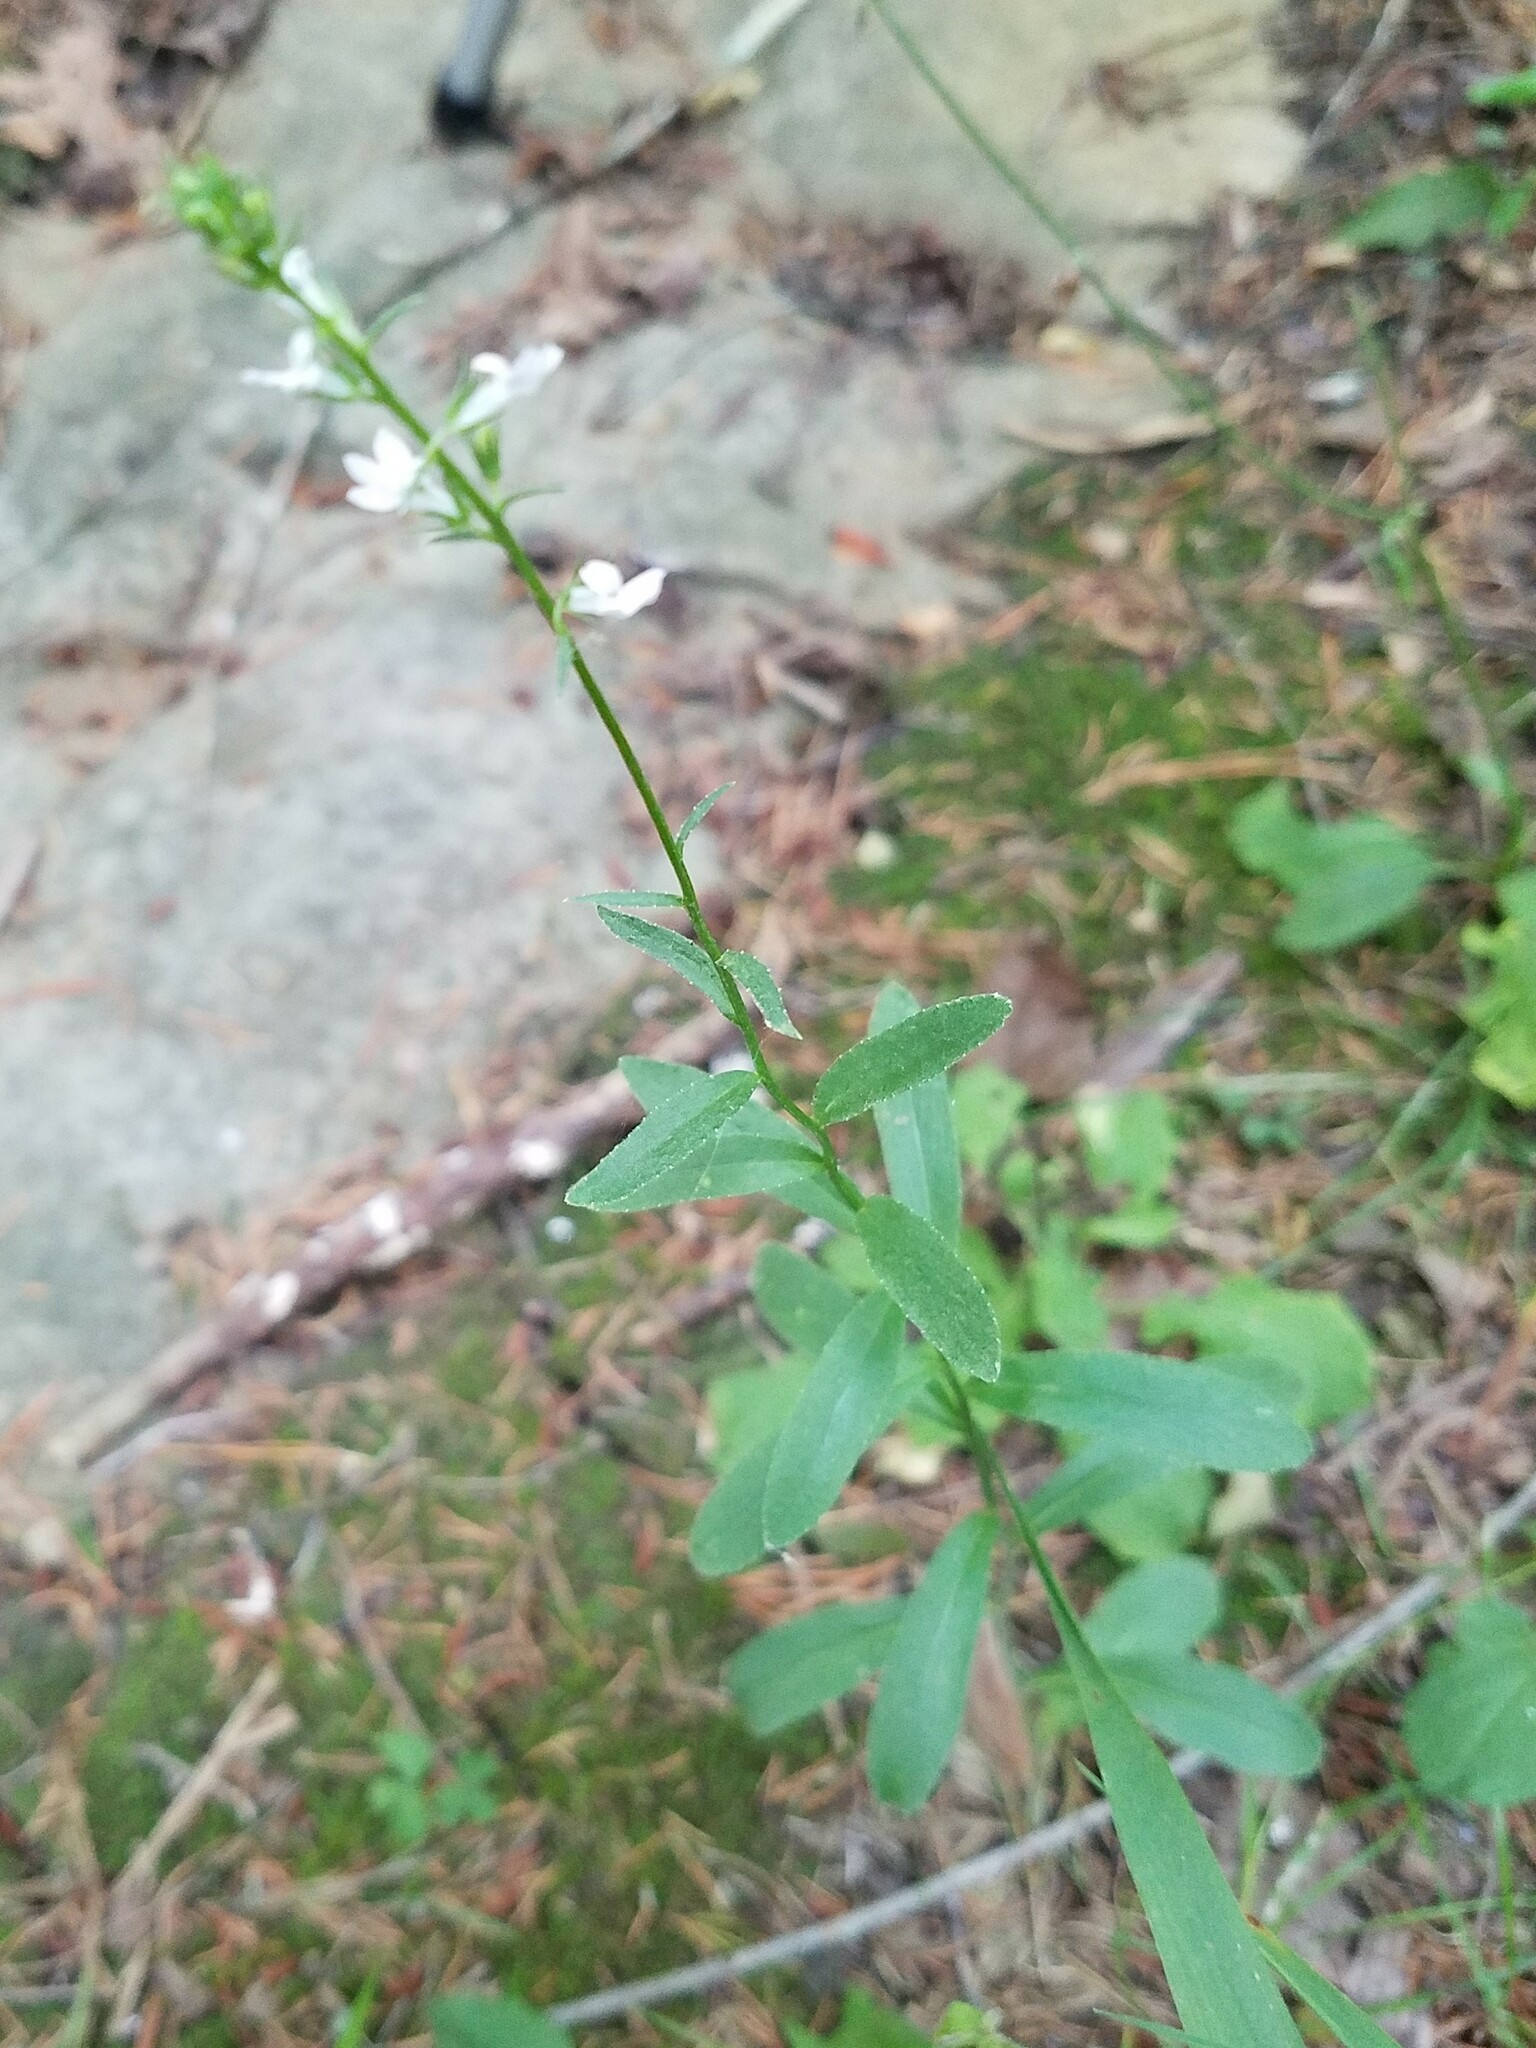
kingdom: Plantae
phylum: Tracheophyta
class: Magnoliopsida
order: Asterales
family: Campanulaceae
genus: Lobelia
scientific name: Lobelia spicata
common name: Pale-spike lobelia
